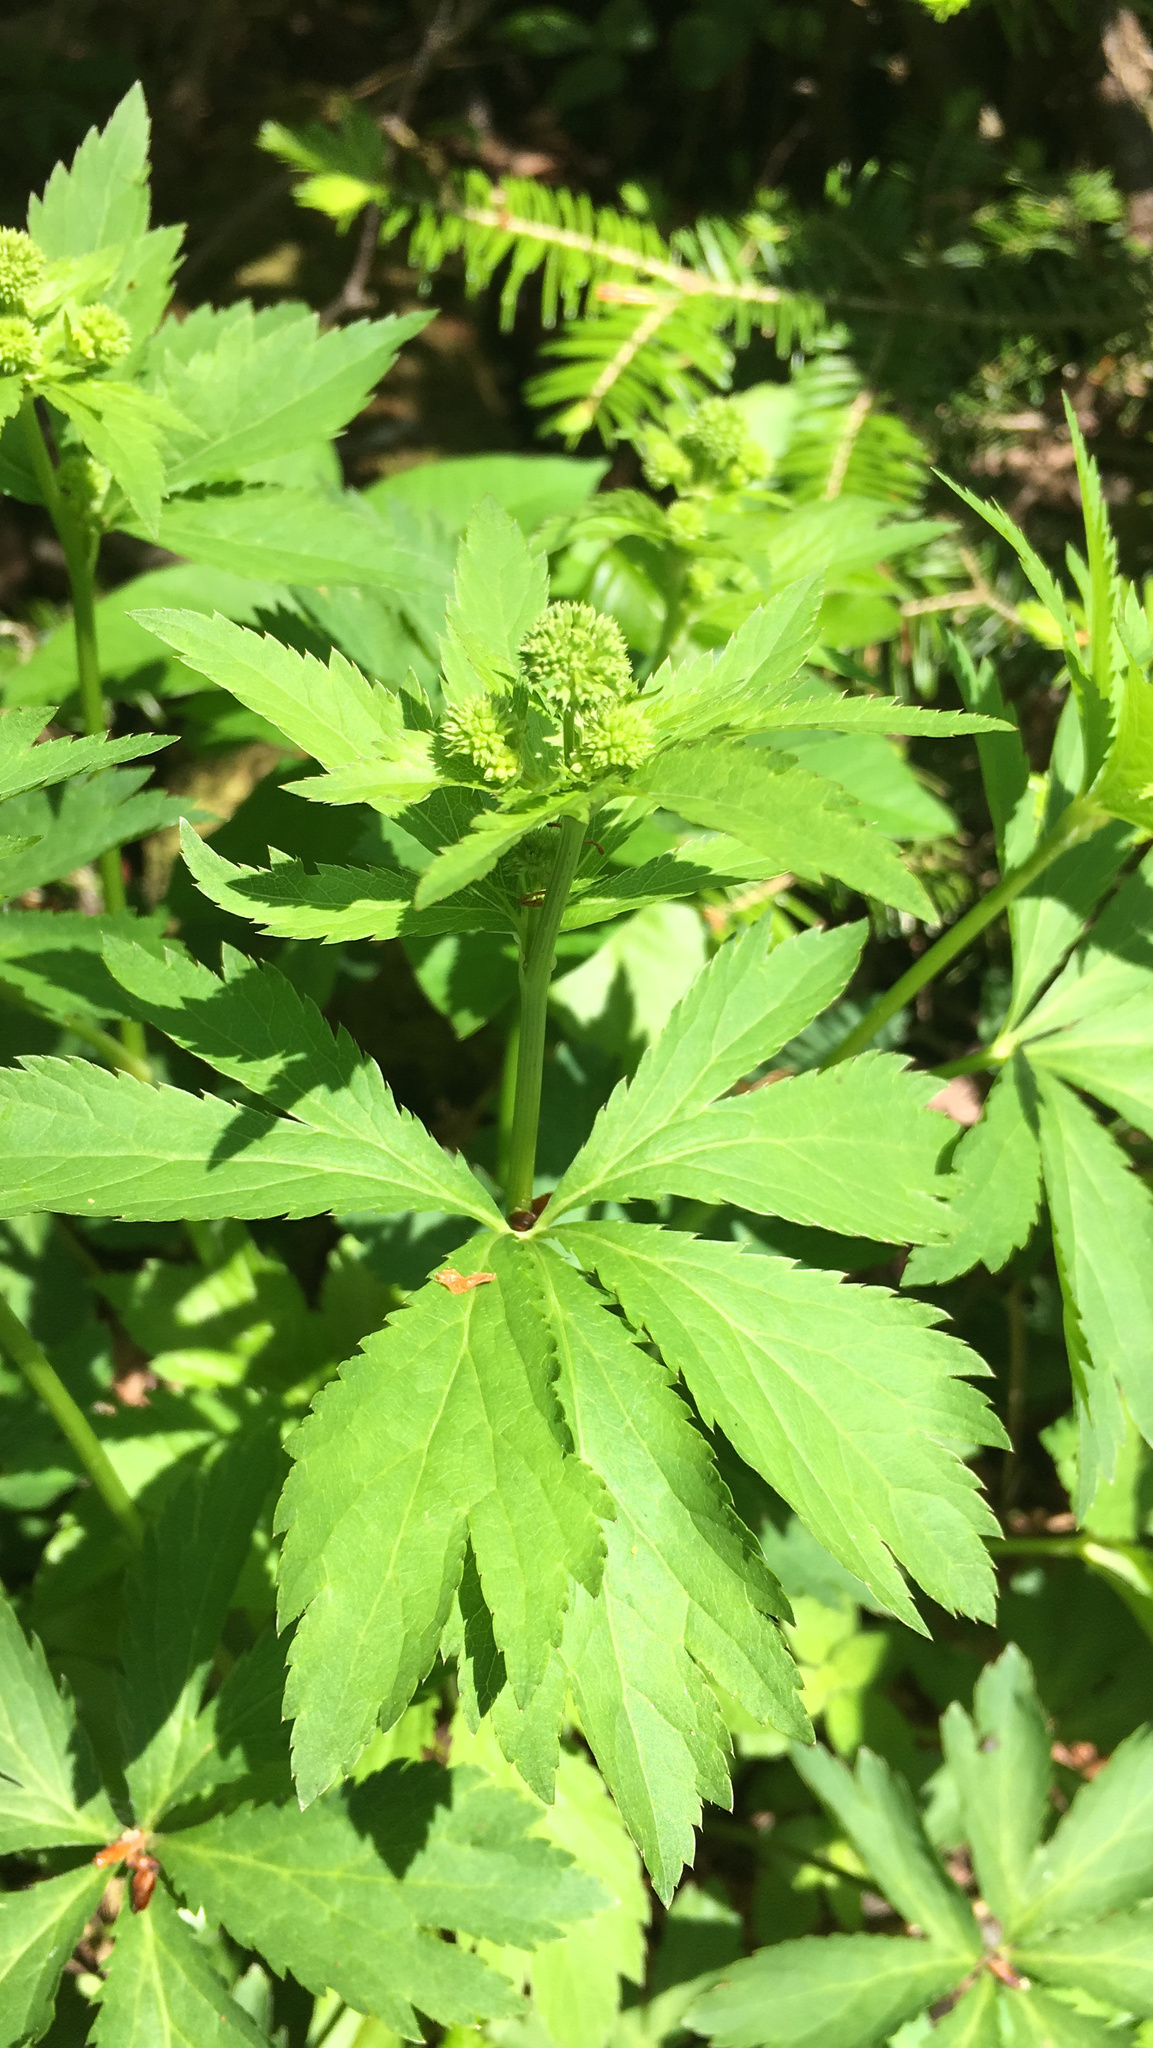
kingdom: Plantae
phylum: Tracheophyta
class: Magnoliopsida
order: Apiales
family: Apiaceae
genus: Sanicula
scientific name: Sanicula marilandica
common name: Black snakeroot
